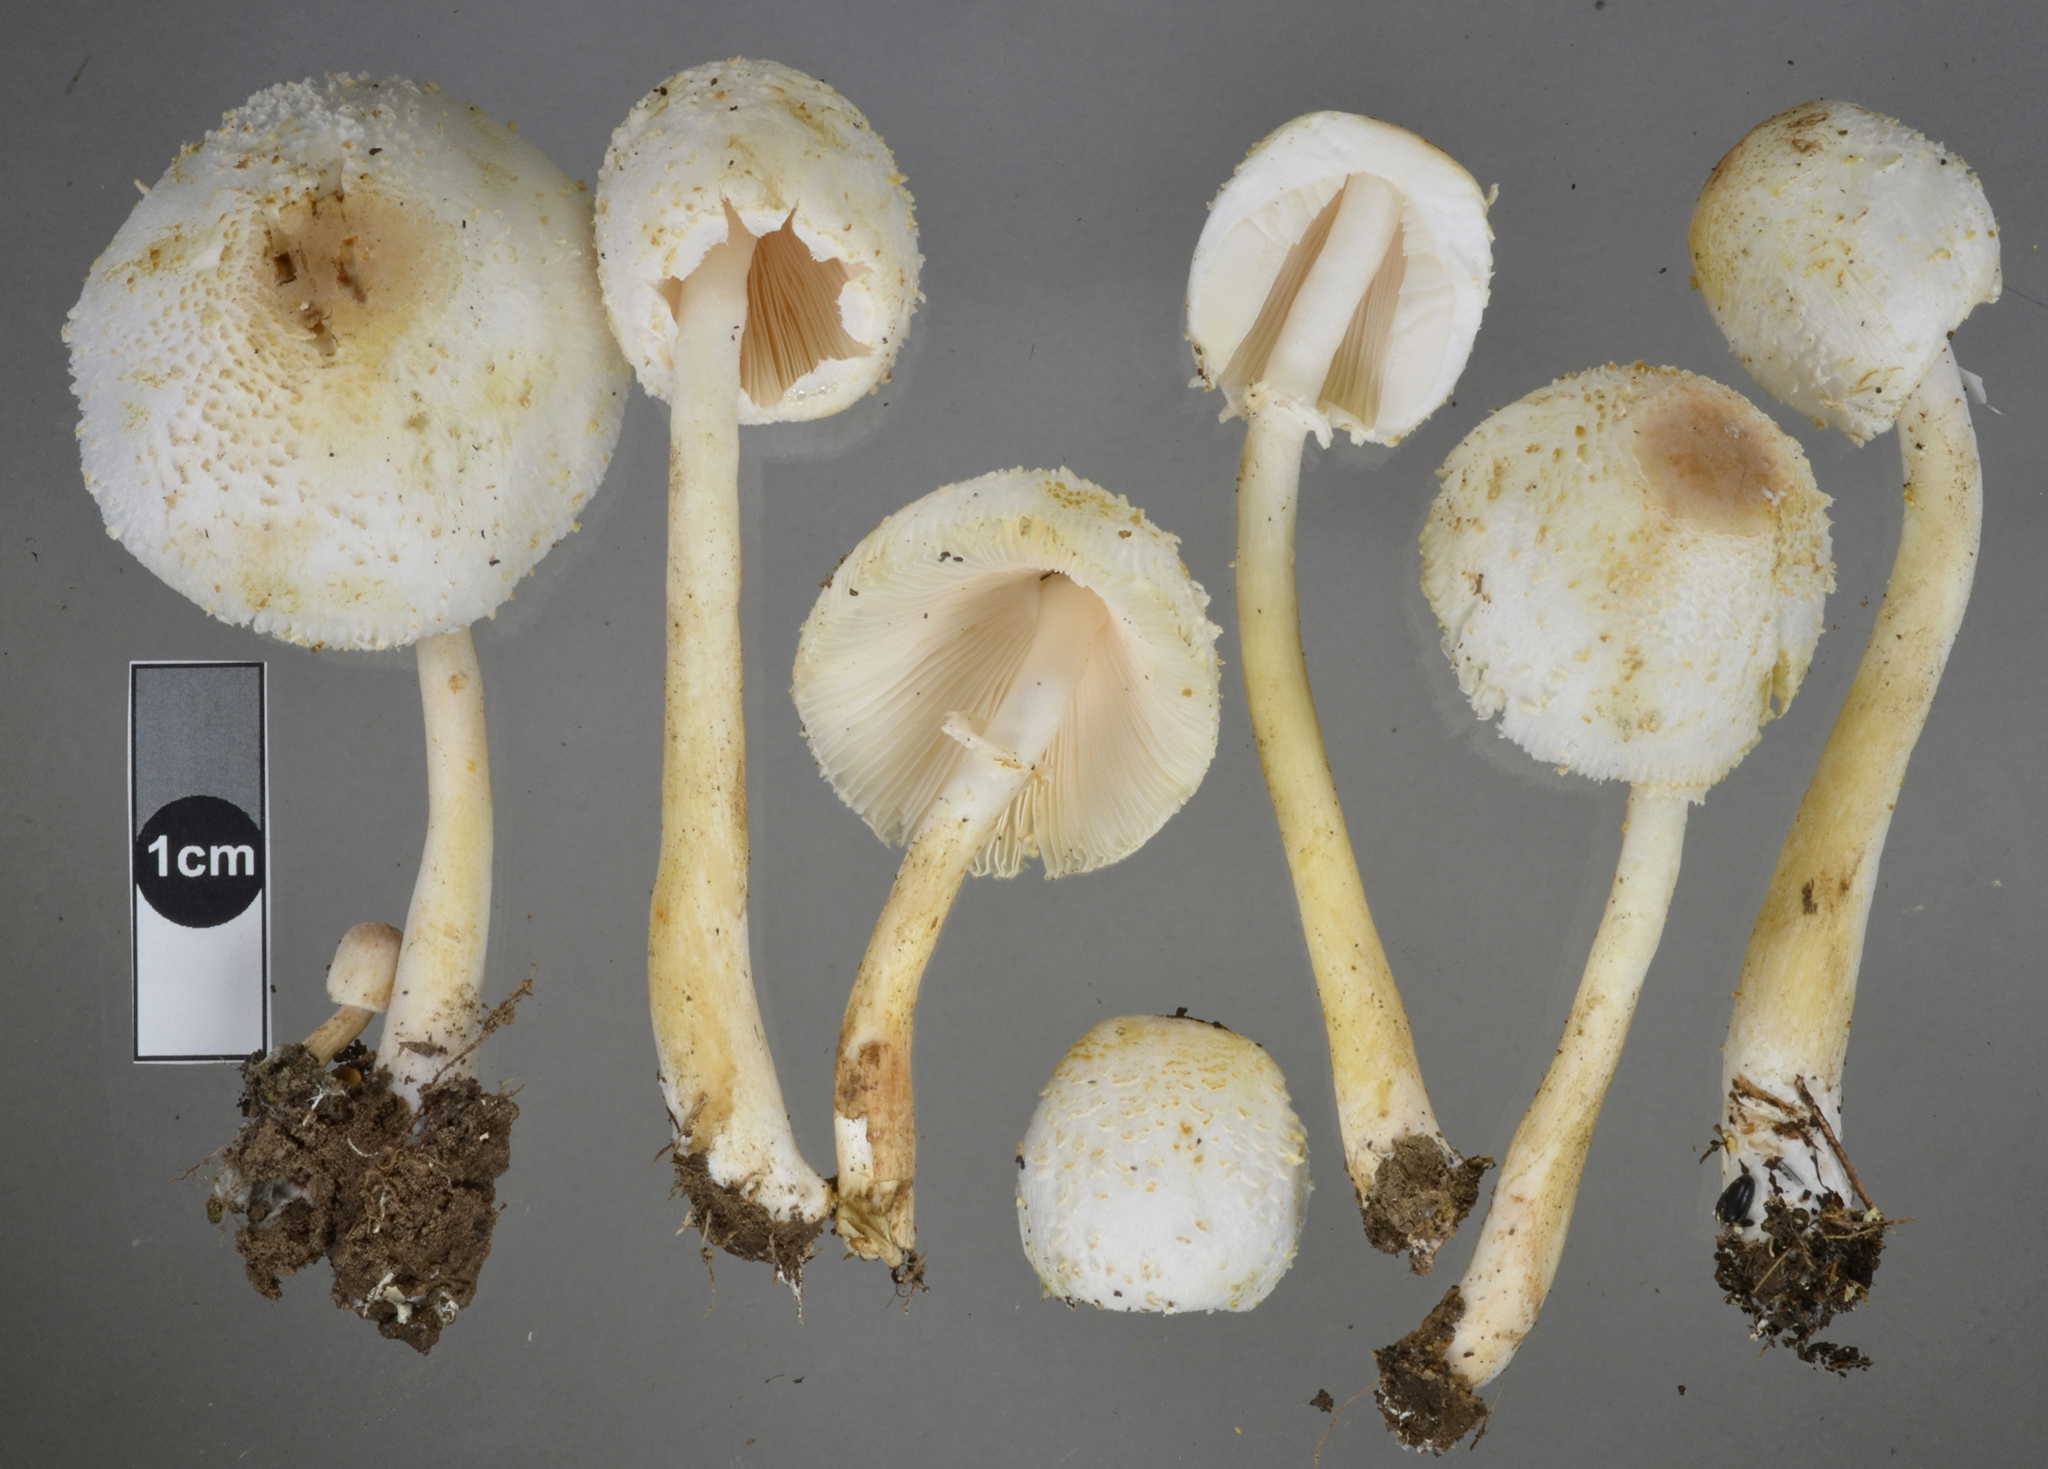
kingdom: Fungi
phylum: Basidiomycota
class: Agaricomycetes
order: Agaricales
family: Agaricaceae
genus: Leucocoprinus
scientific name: Leucocoprinus cepistipes
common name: Onion-stalk parasol
